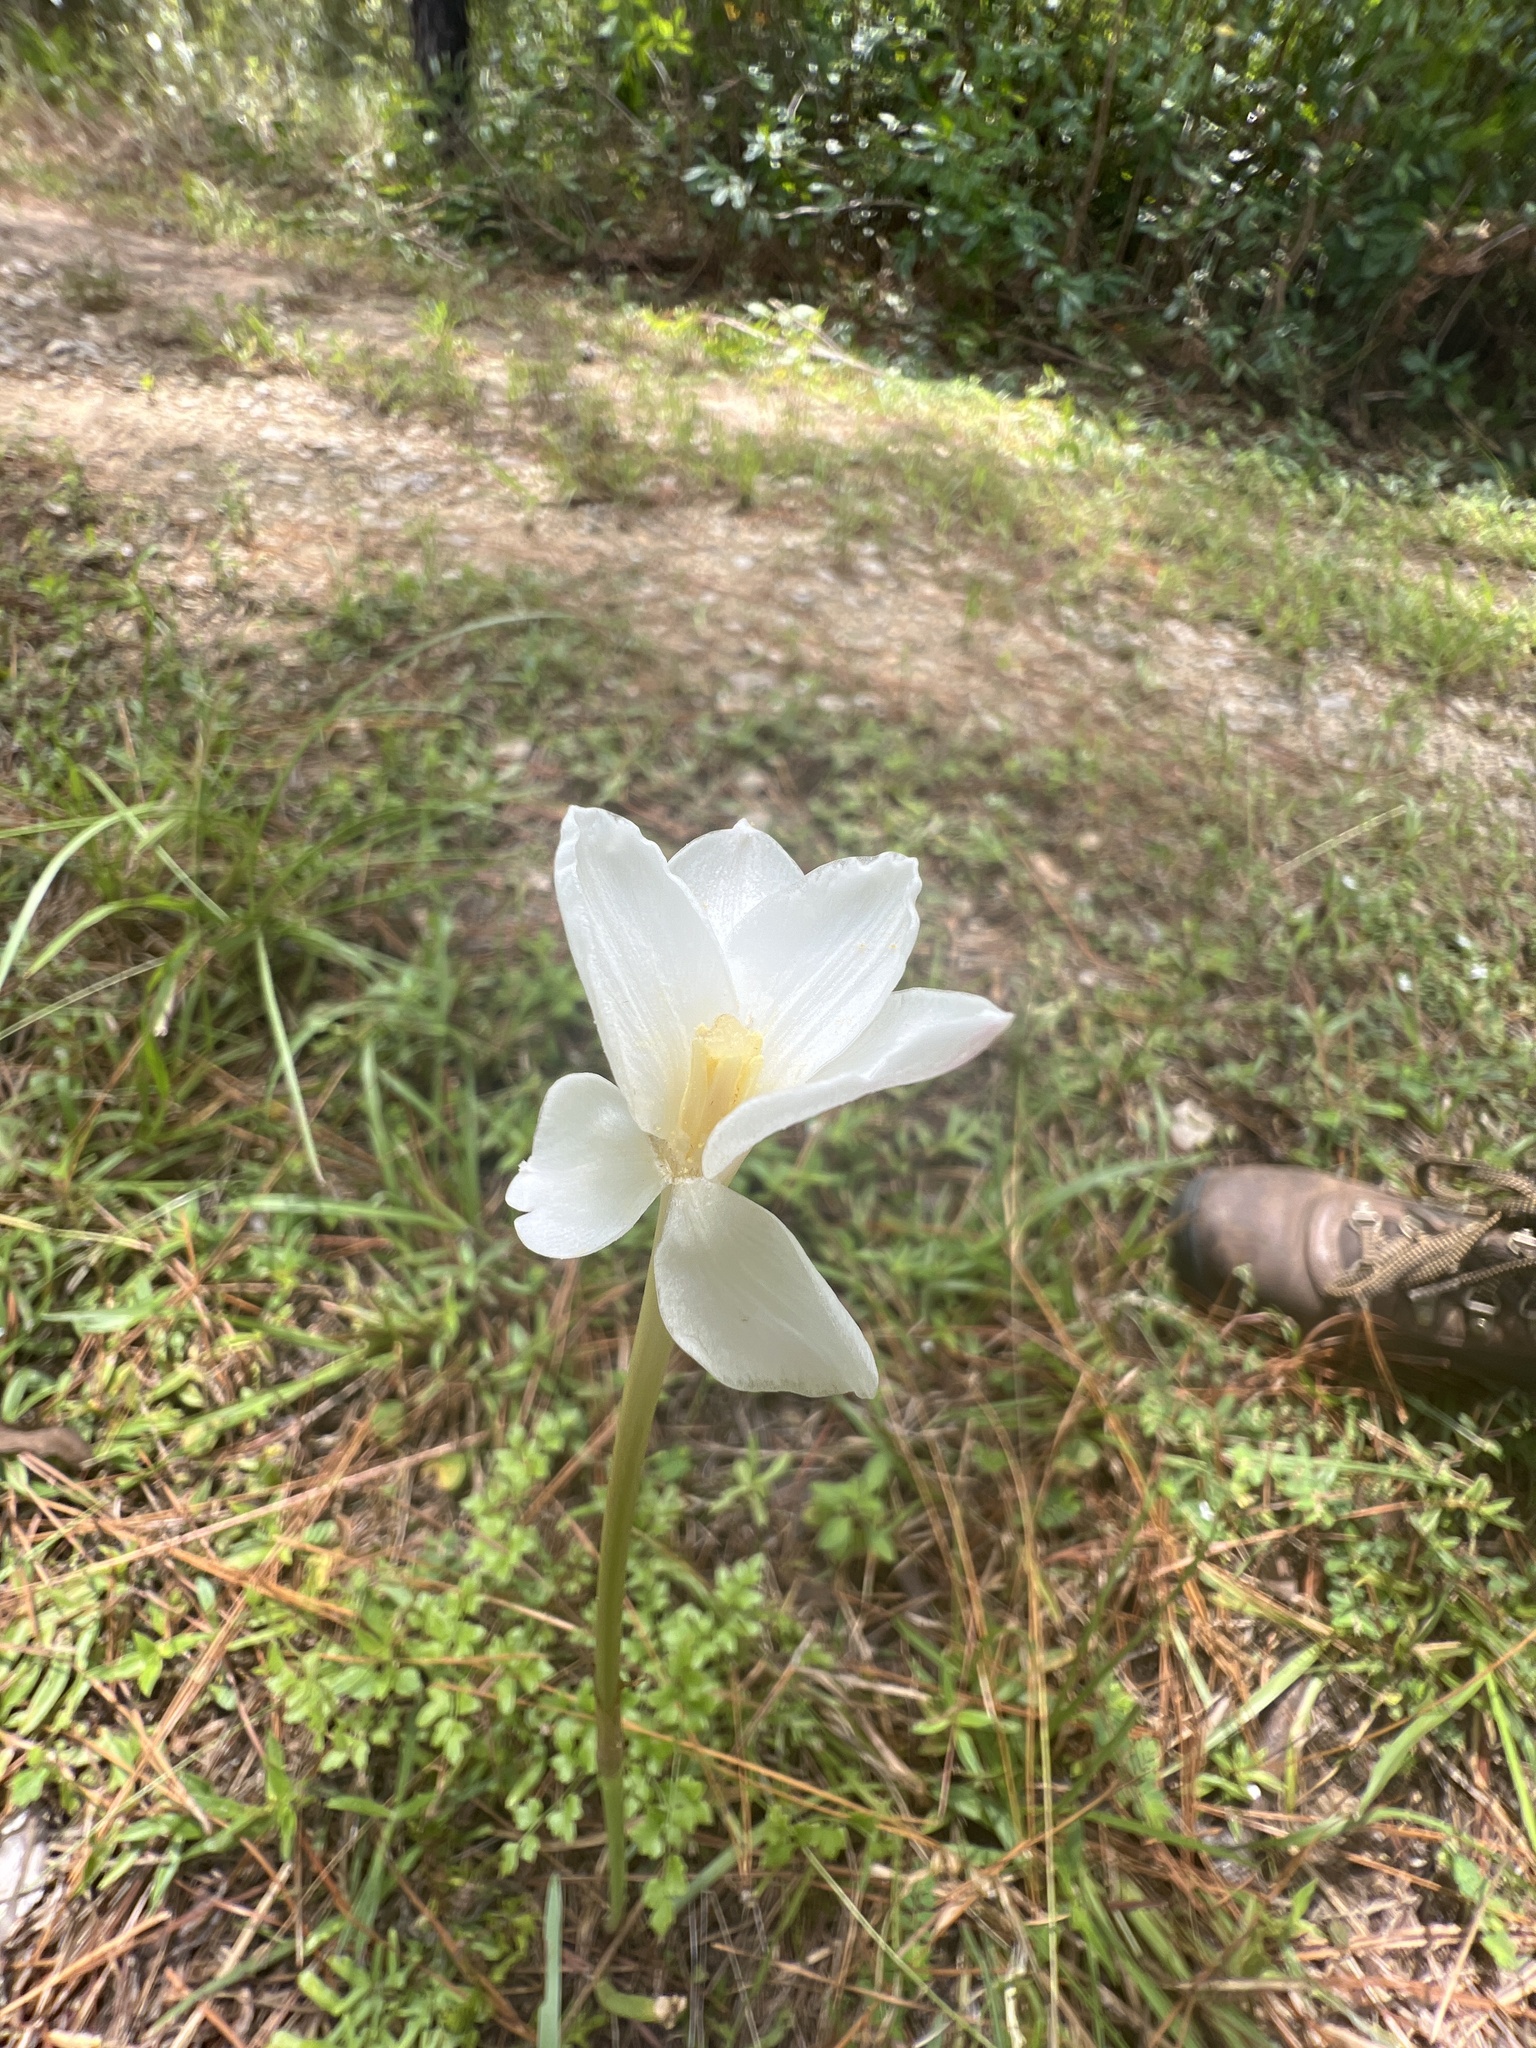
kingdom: Plantae
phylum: Tracheophyta
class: Liliopsida
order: Asparagales
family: Amaryllidaceae
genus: Zephyranthes
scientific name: Zephyranthes chlorosolen
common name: Evening rain-lily
